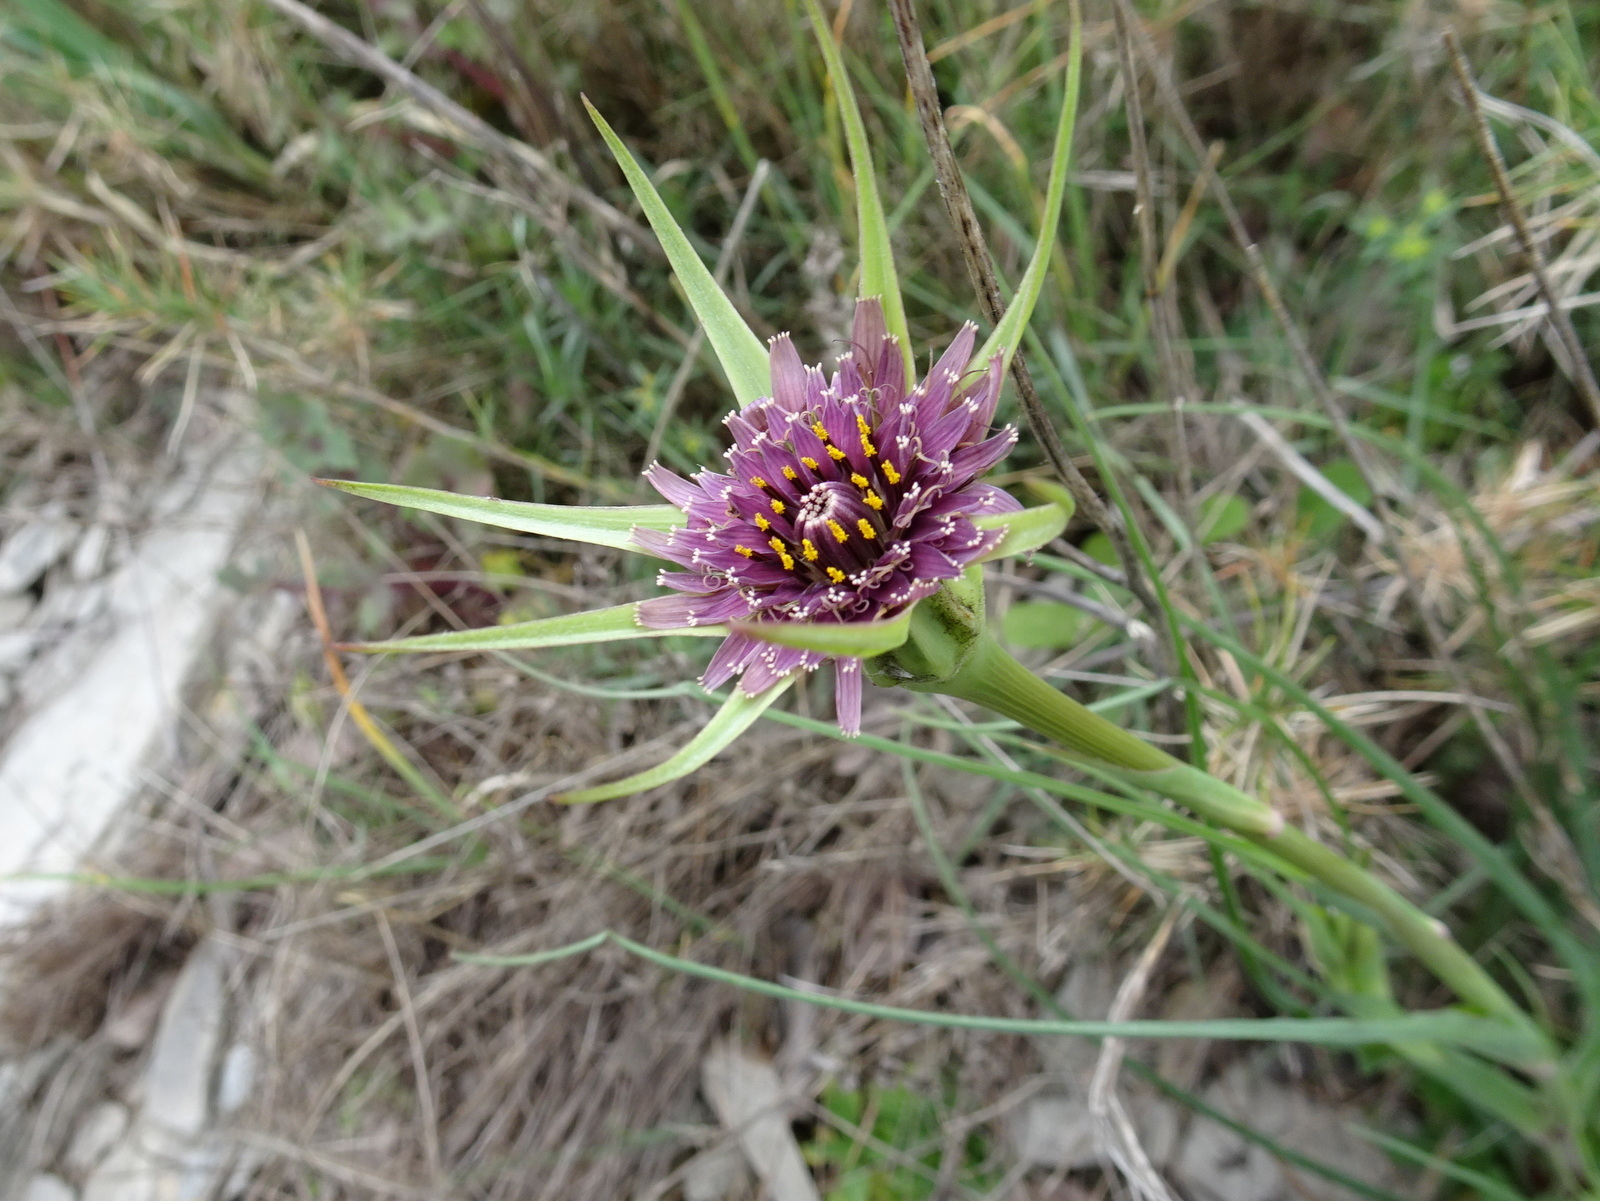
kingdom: Plantae
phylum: Tracheophyta
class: Magnoliopsida
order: Asterales
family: Asteraceae
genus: Tragopogon
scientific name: Tragopogon porrifolius
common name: Salsify
